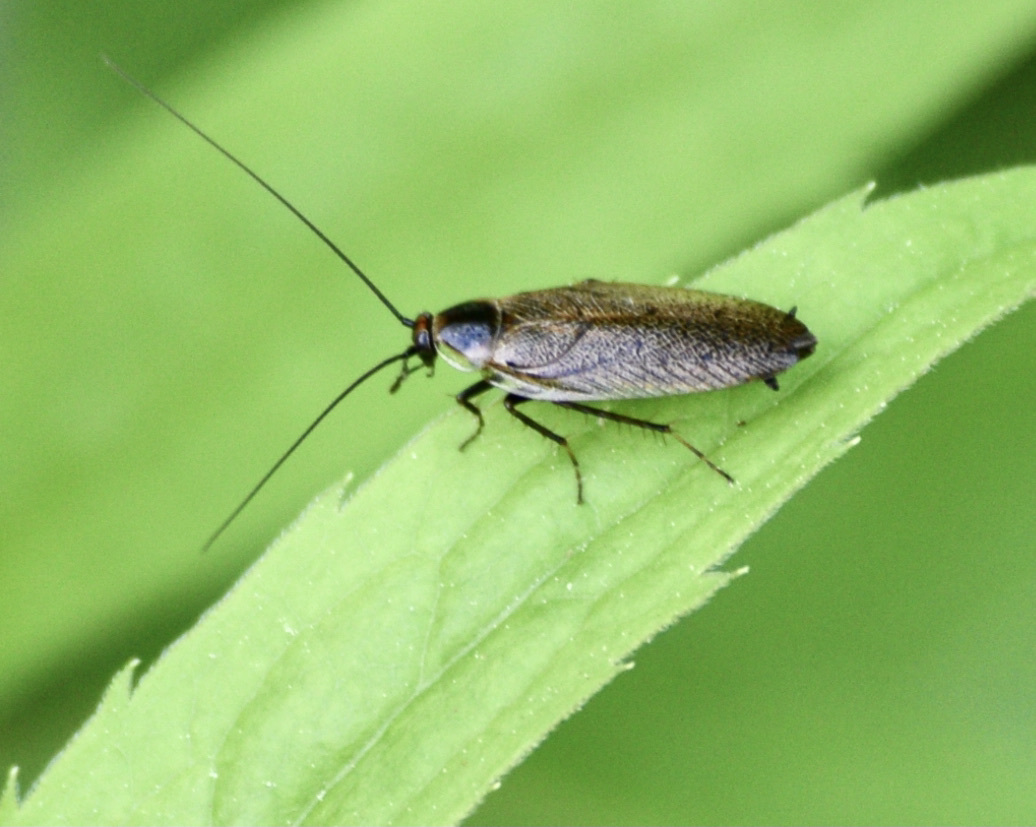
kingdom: Animalia
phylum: Arthropoda
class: Insecta
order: Blattodea
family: Ectobiidae
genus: Ectobius
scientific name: Ectobius lapponicus
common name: Dusky cockroach
